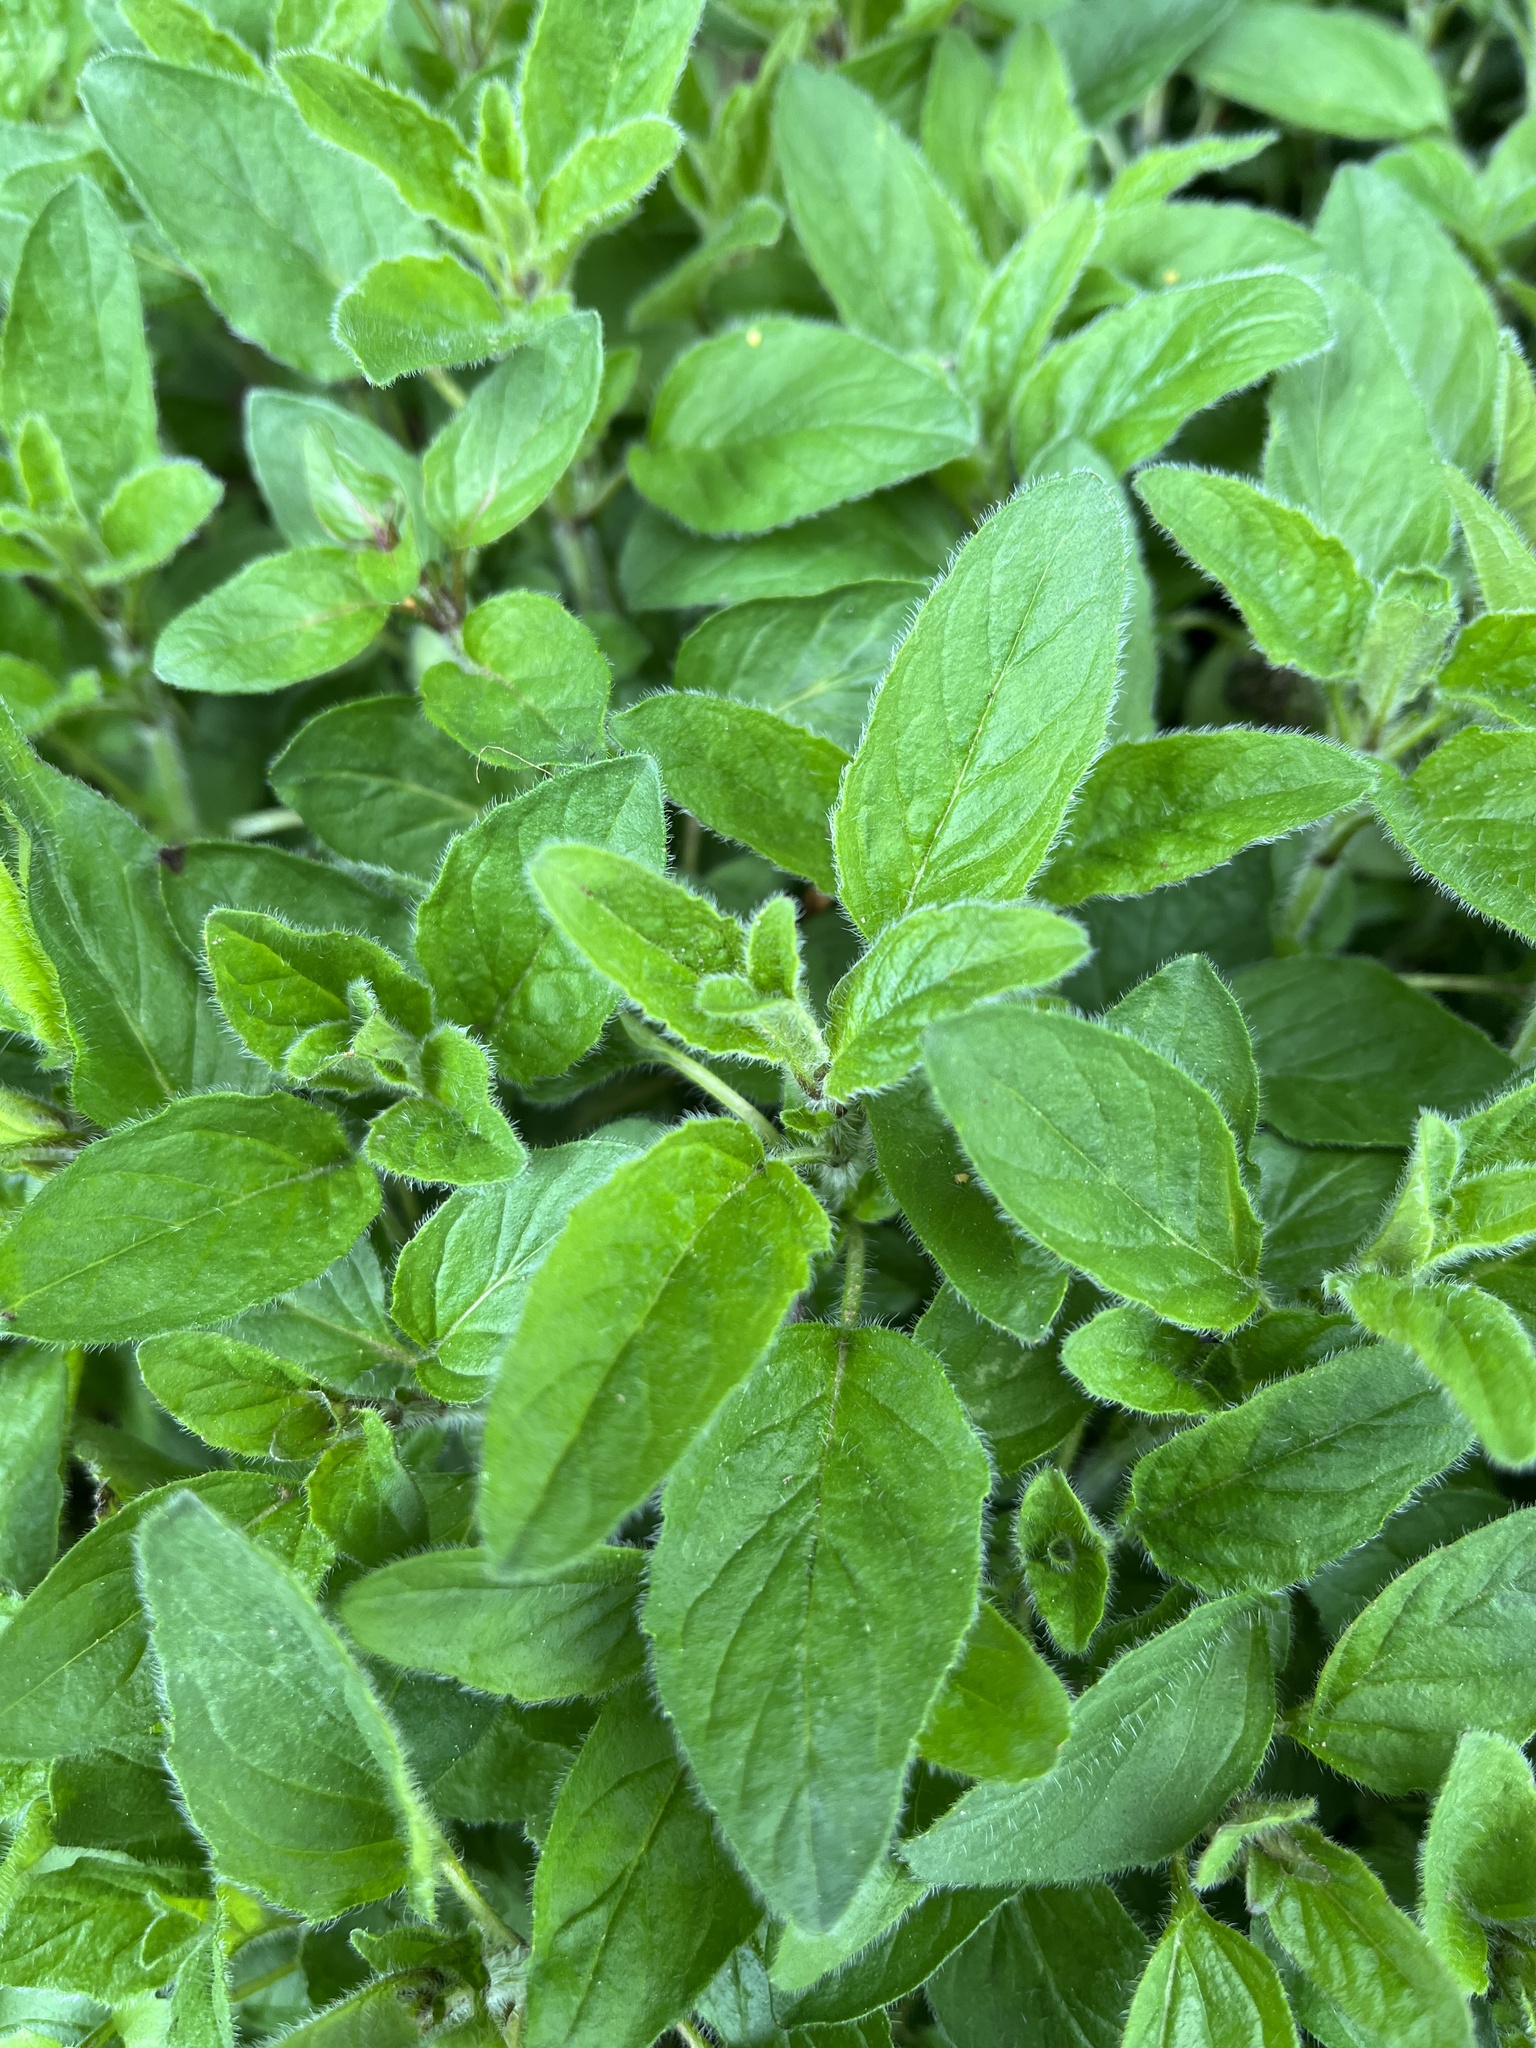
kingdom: Plantae
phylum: Tracheophyta
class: Magnoliopsida
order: Lamiales
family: Lamiaceae
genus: Origanum
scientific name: Origanum vulgare
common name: Wild marjoram
